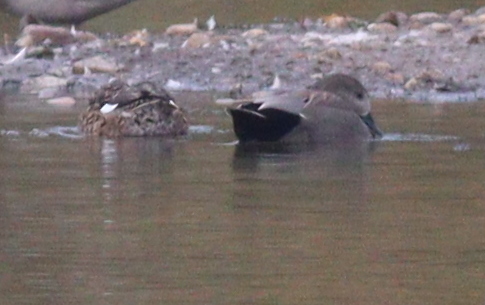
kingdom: Animalia
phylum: Chordata
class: Aves
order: Anseriformes
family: Anatidae
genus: Mareca
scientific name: Mareca strepera
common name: Gadwall
